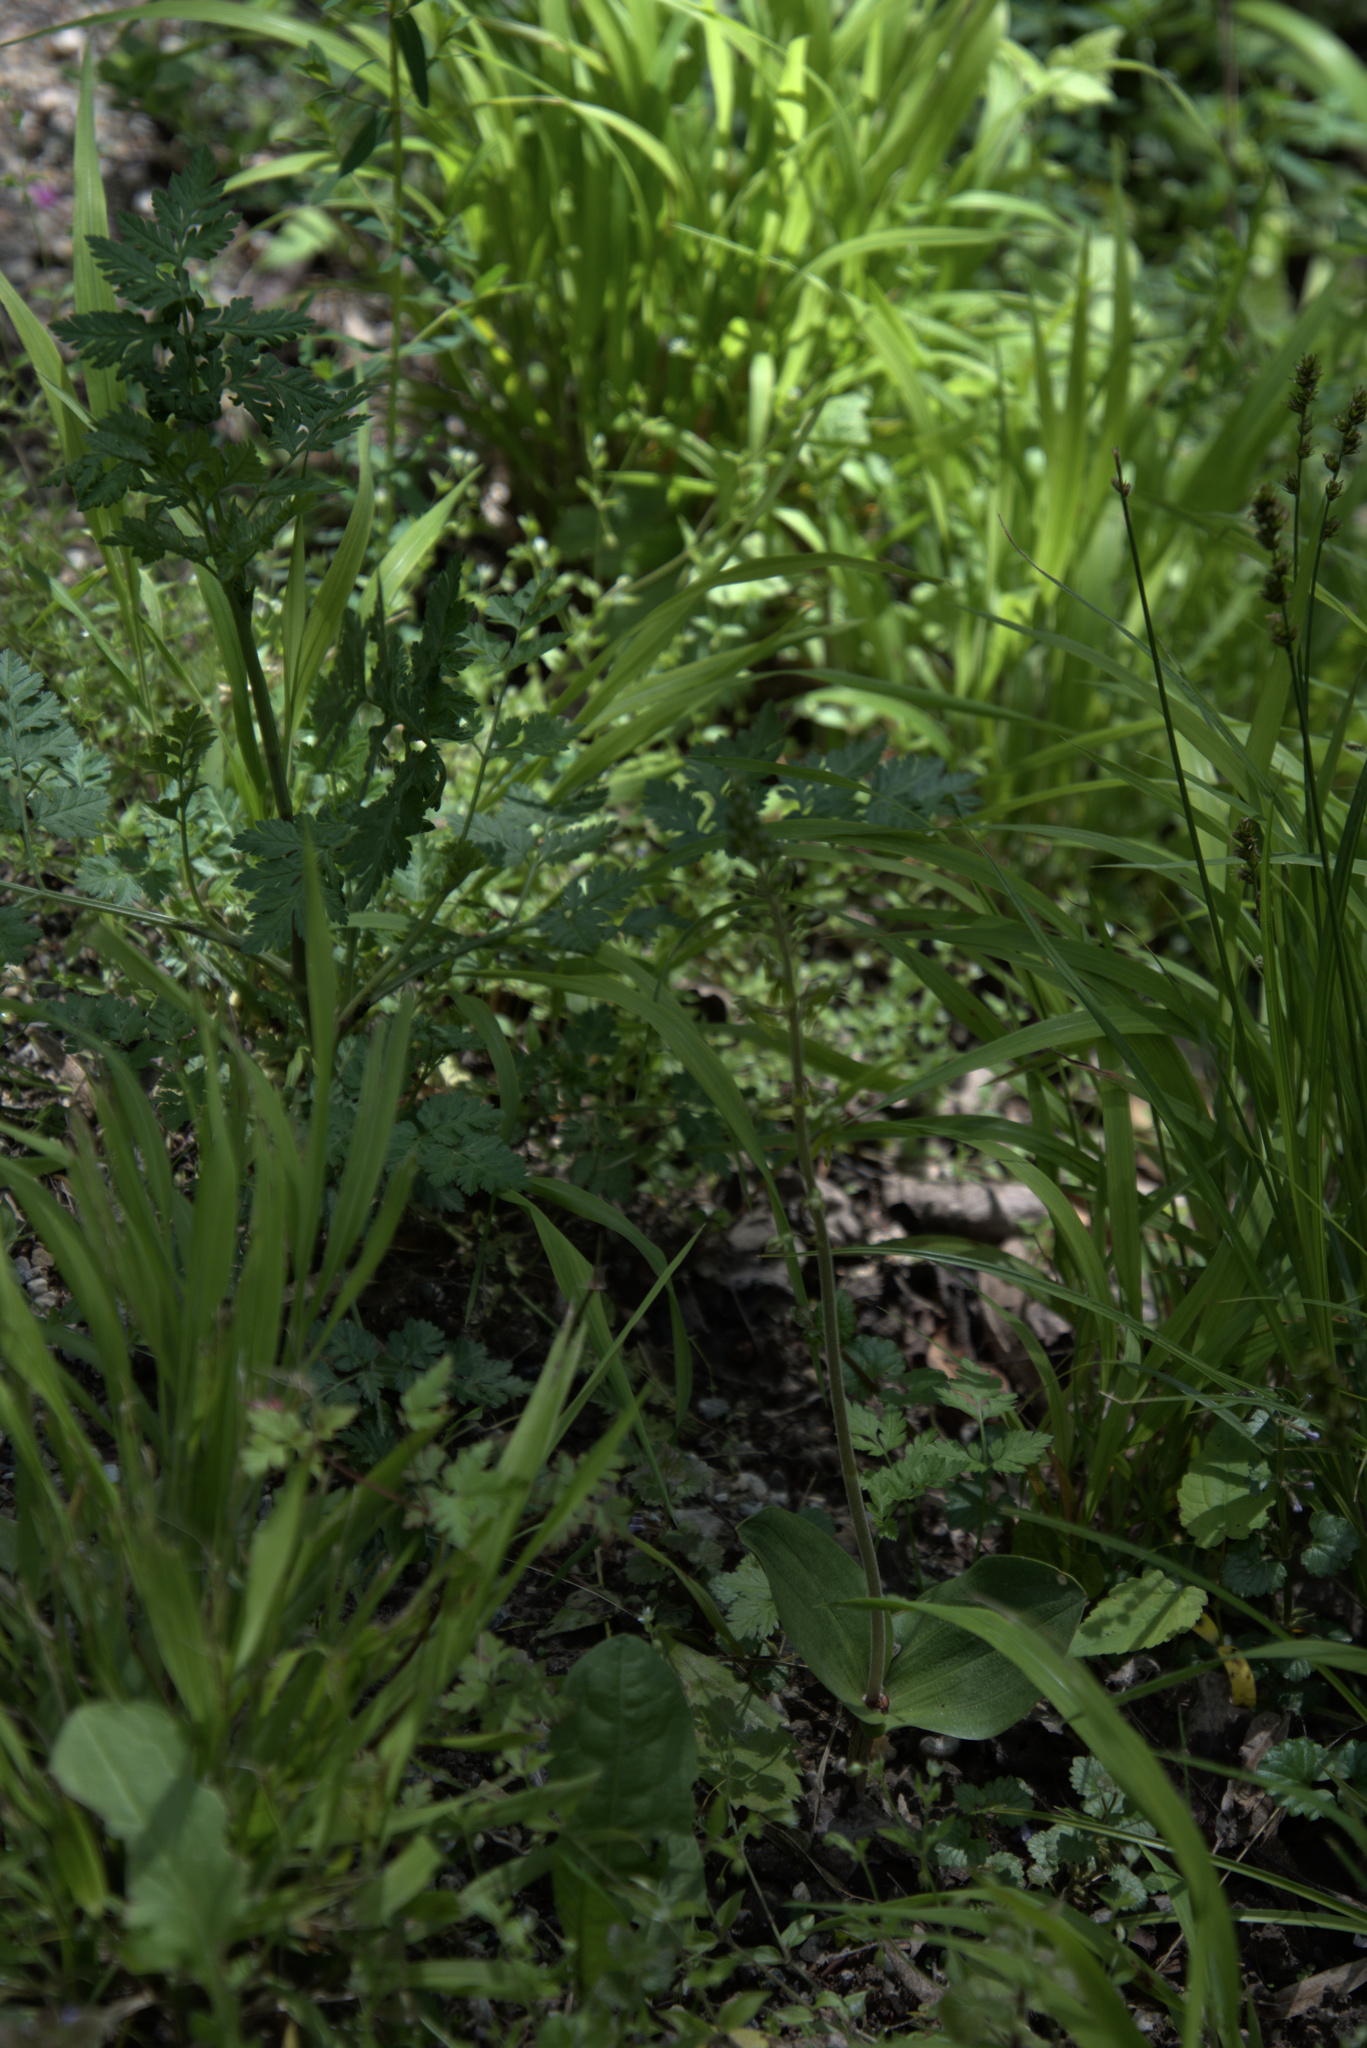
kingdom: Plantae
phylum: Tracheophyta
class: Liliopsida
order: Asparagales
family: Orchidaceae
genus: Neottia
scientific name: Neottia ovata
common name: Common twayblade
